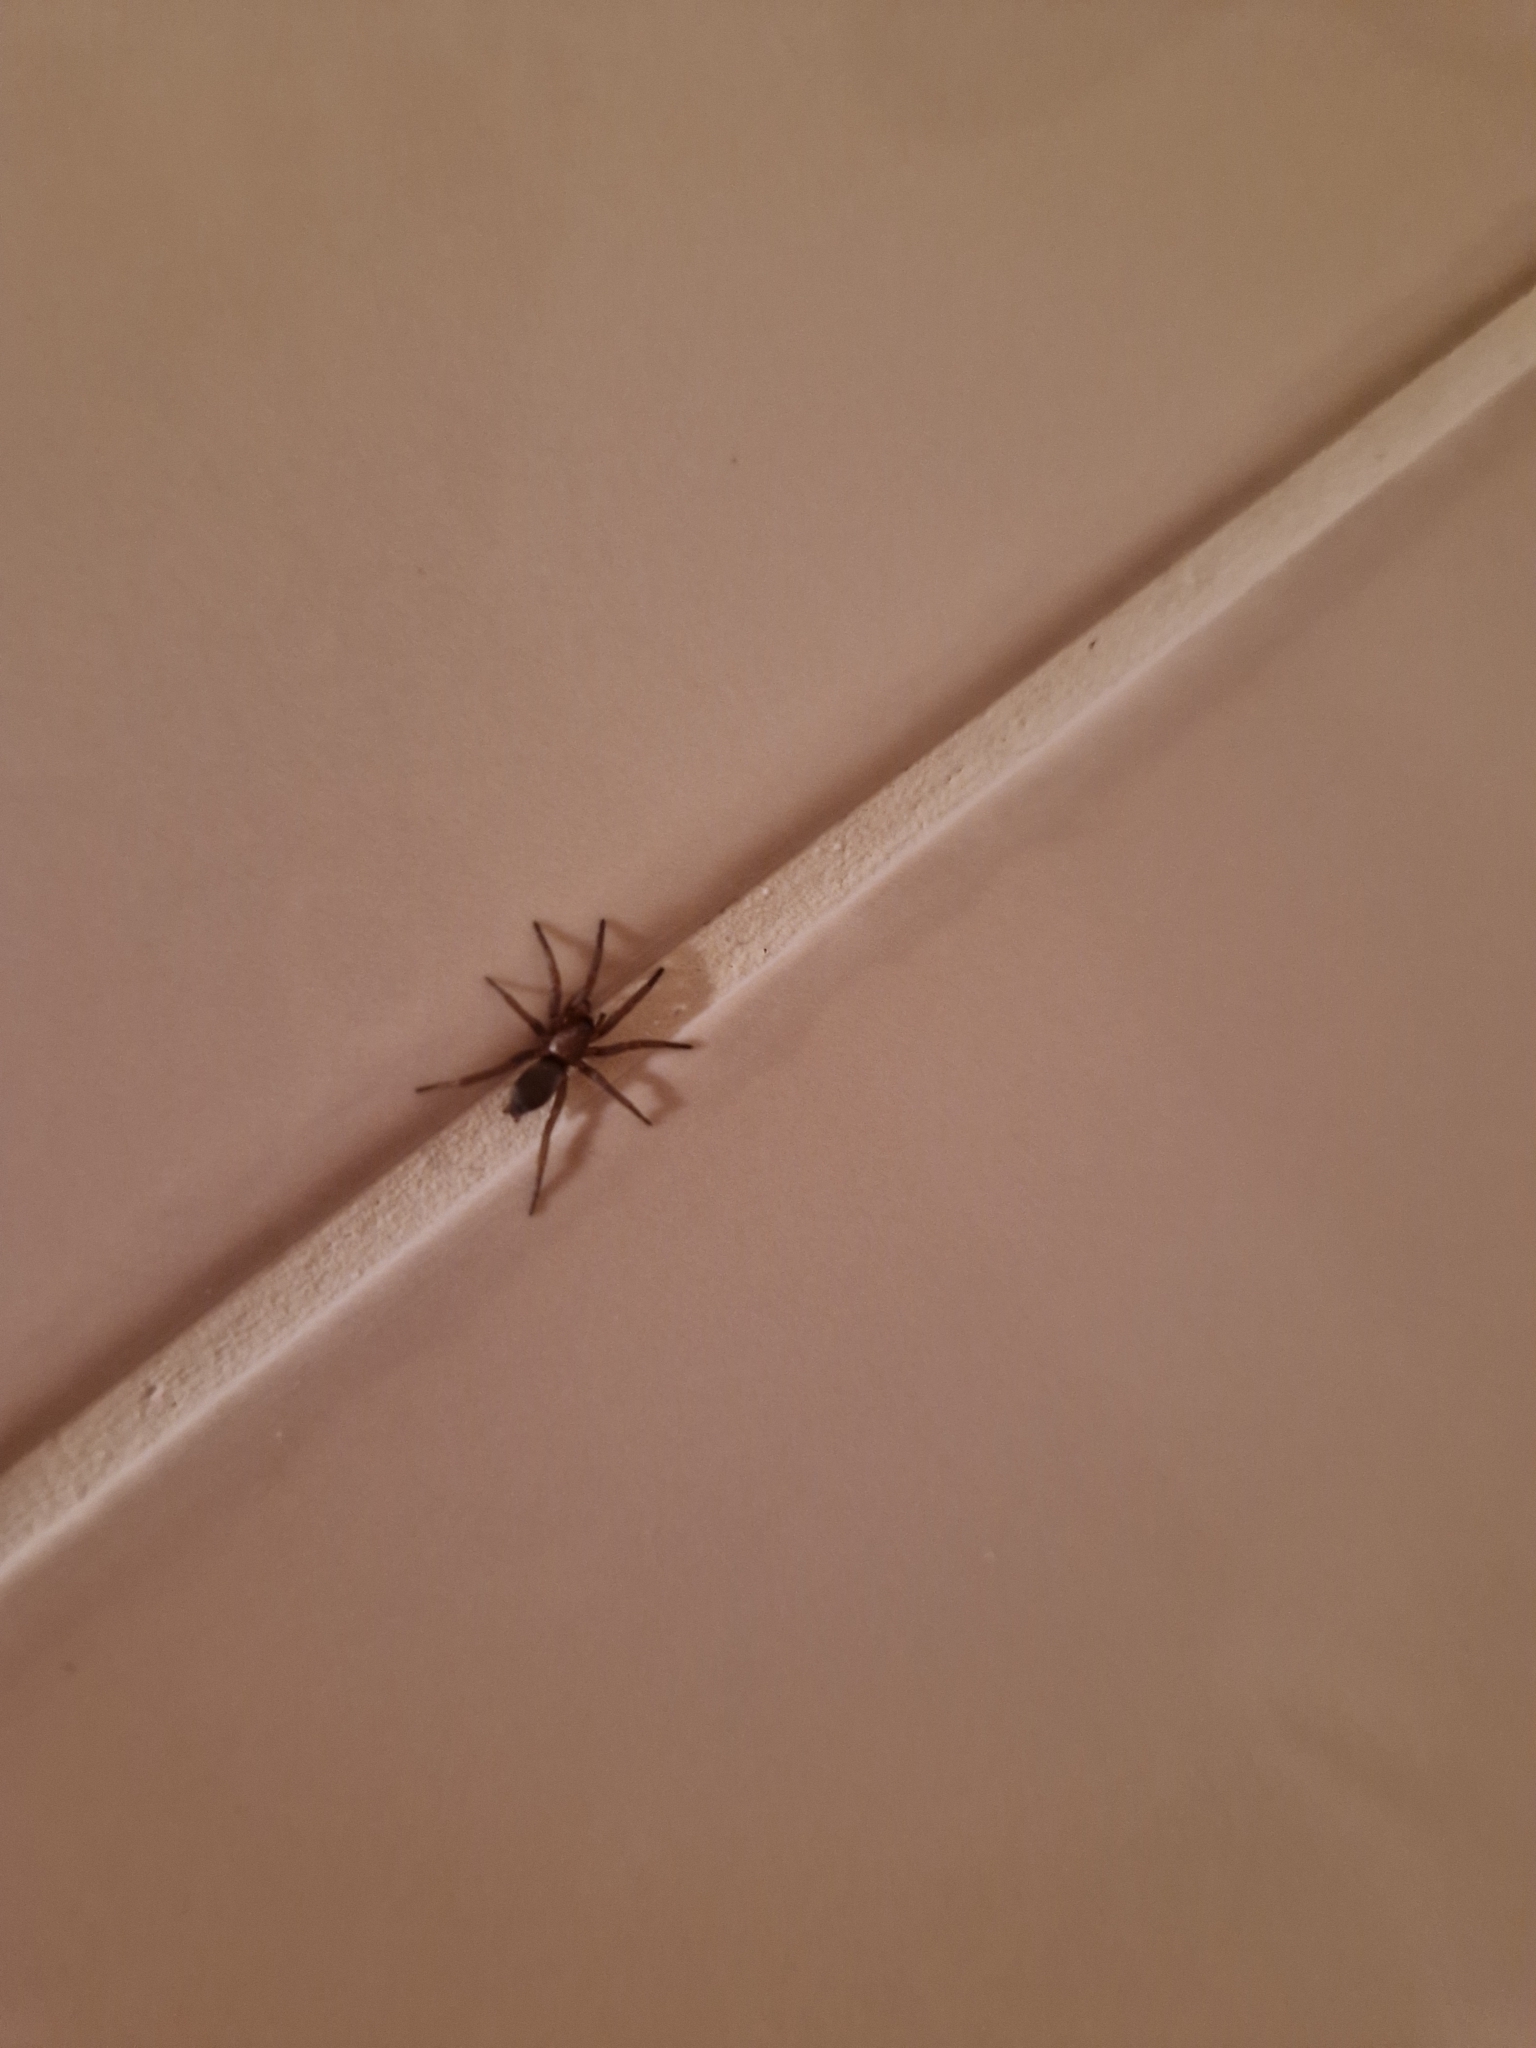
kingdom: Animalia
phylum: Arthropoda
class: Arachnida
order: Araneae
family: Gnaphosidae
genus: Scotophaeus
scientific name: Scotophaeus blackwalli
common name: Mouse spider
